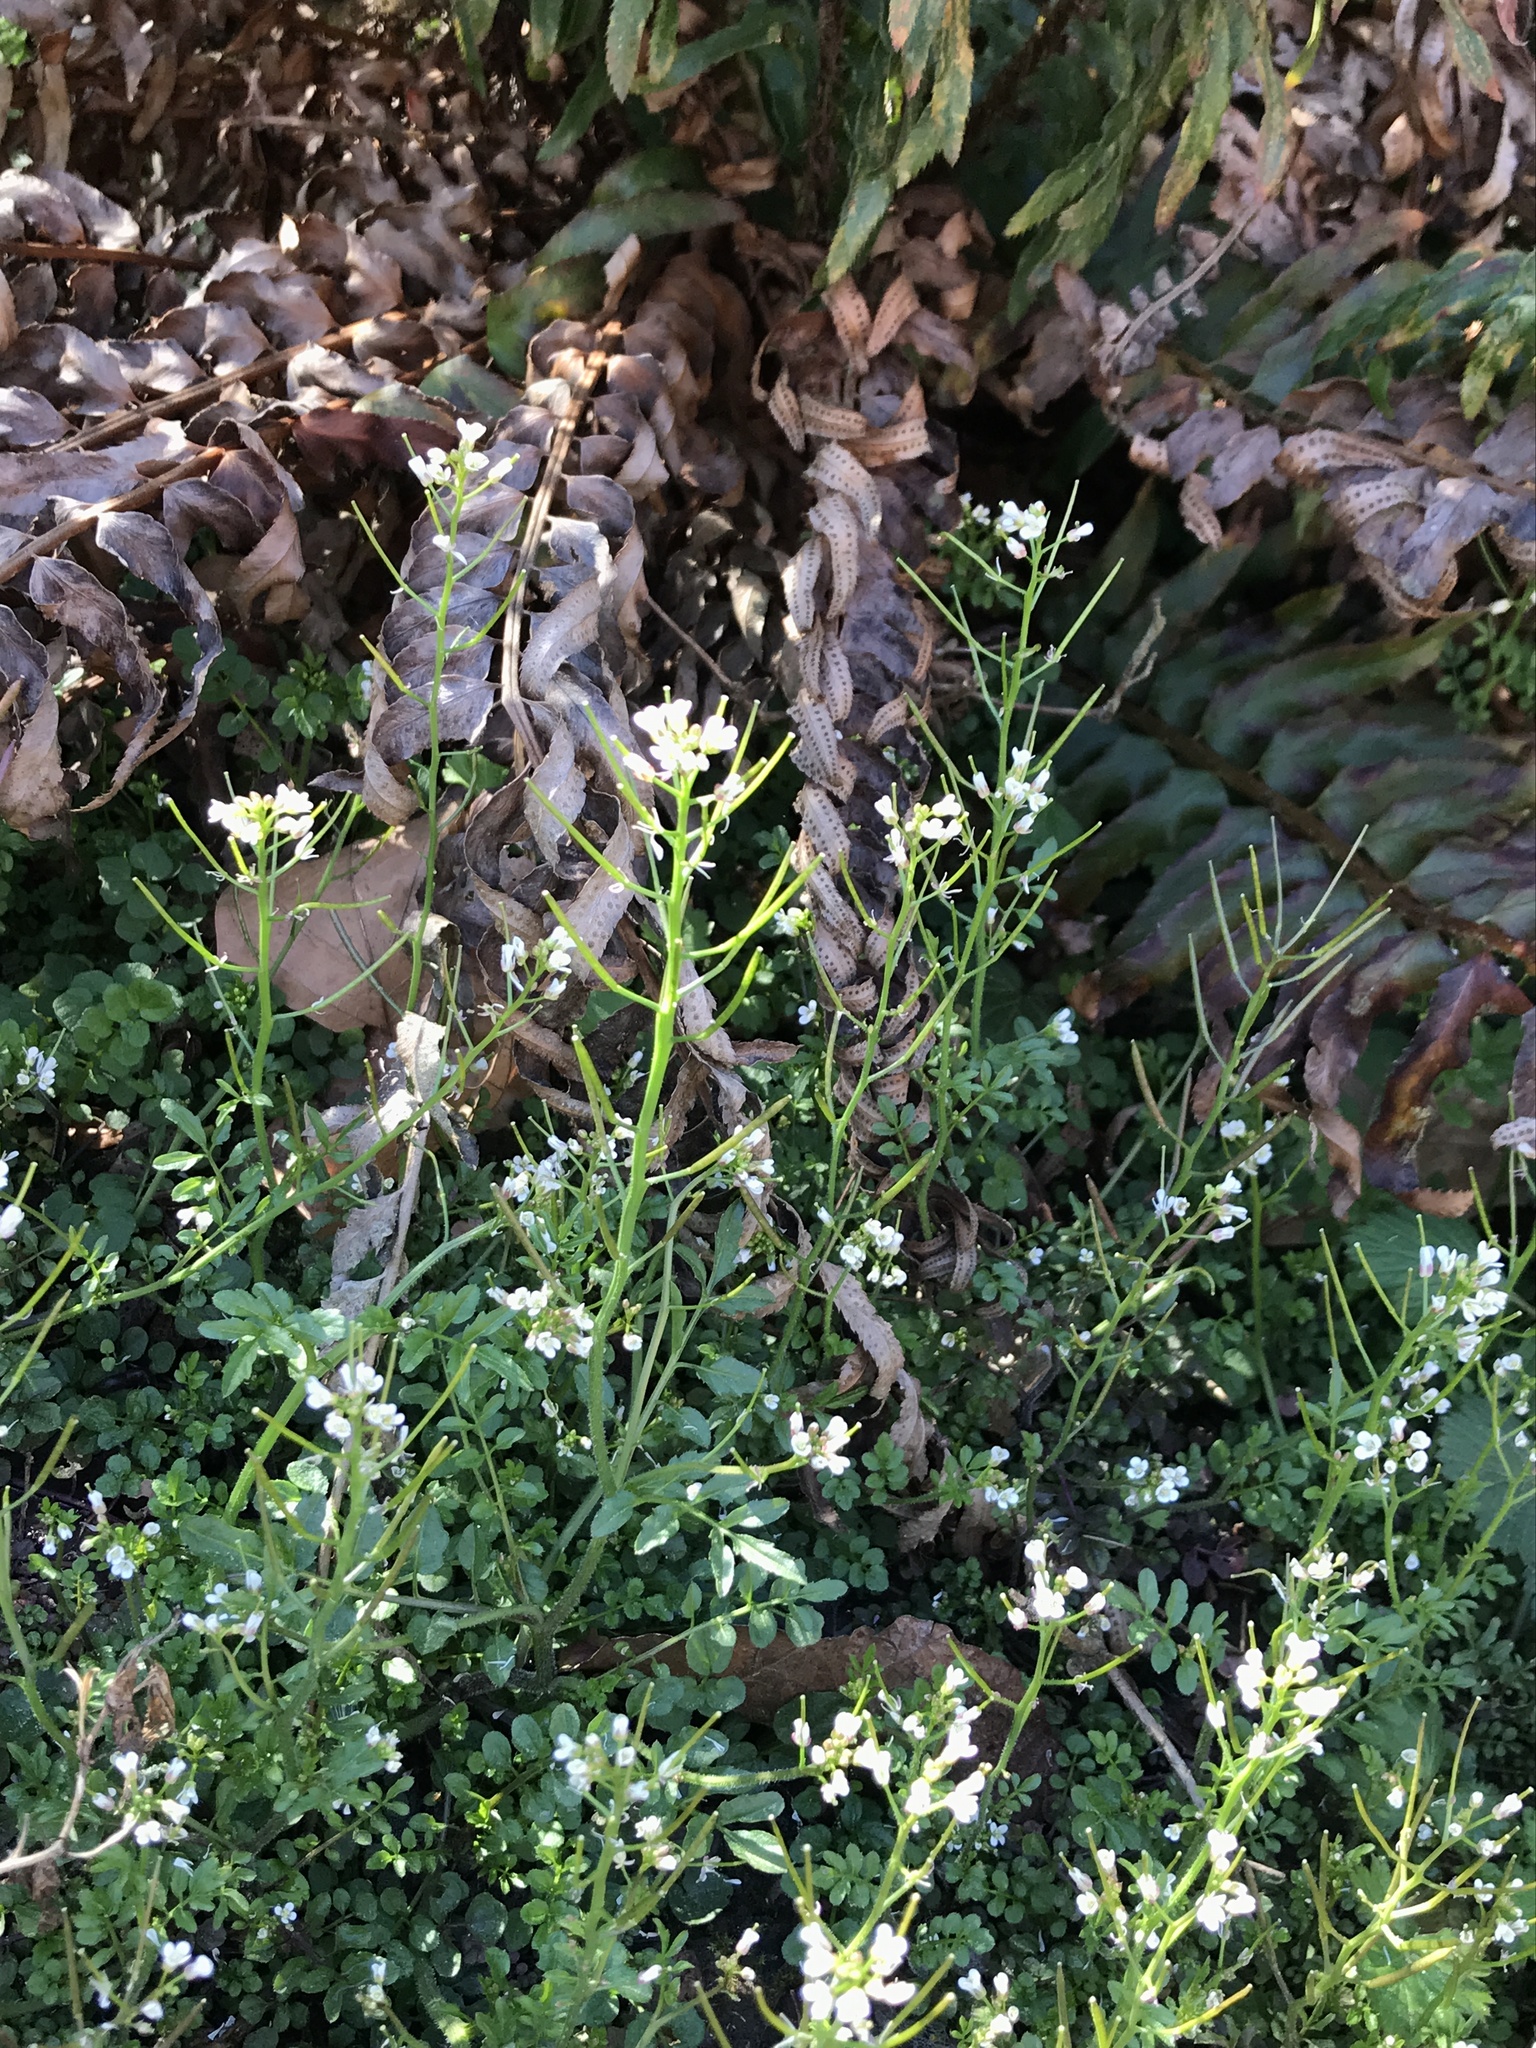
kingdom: Plantae
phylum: Tracheophyta
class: Magnoliopsida
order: Brassicales
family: Brassicaceae
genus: Cardamine
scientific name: Cardamine flexuosa
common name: Woodland bittercress
